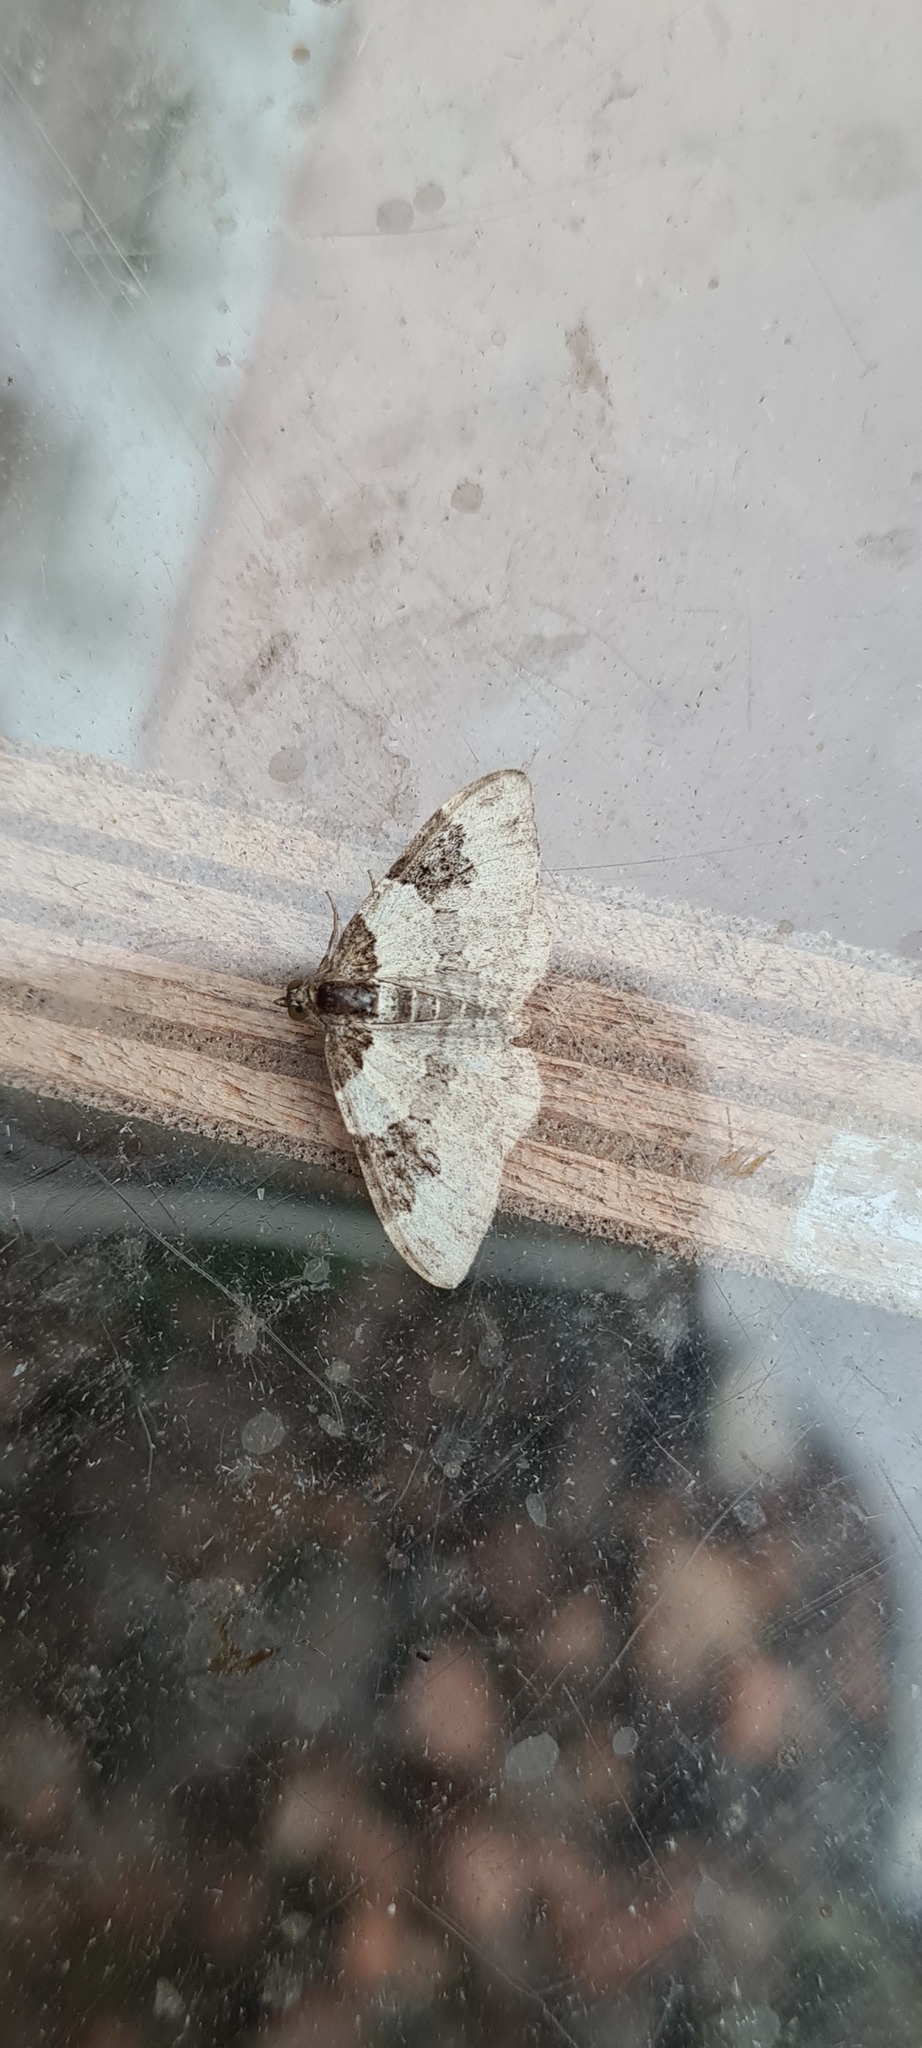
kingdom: Animalia
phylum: Arthropoda
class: Insecta
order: Lepidoptera
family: Geometridae
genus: Xanthorhoe
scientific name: Xanthorhoe fluctuata
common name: Garden carpet
